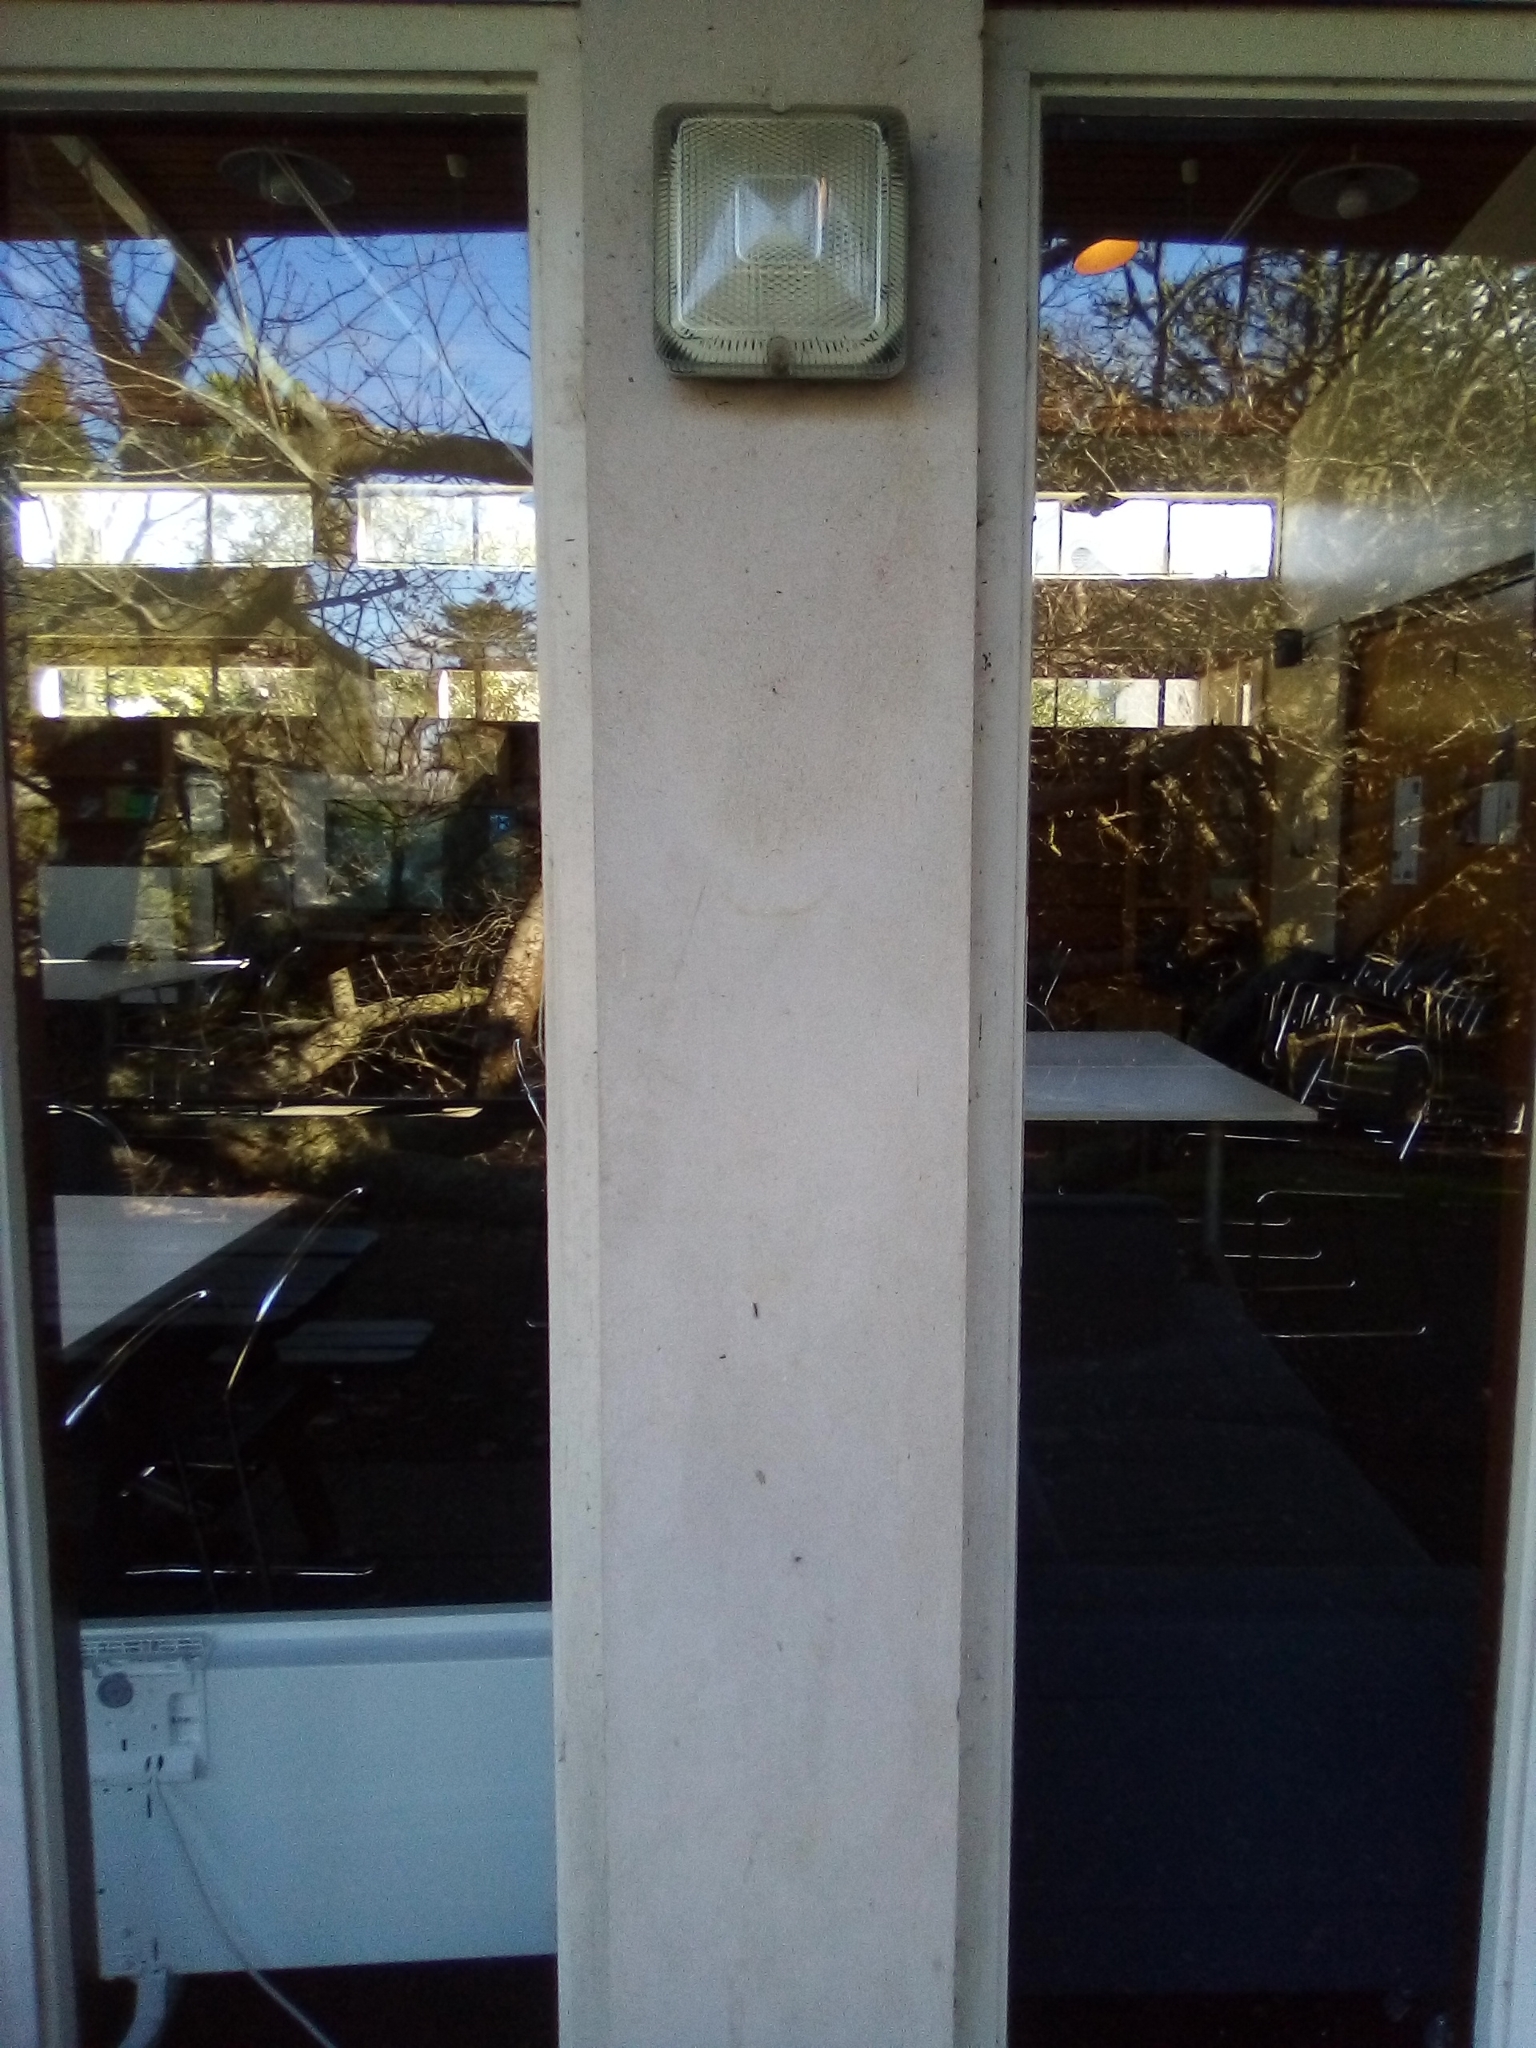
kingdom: Animalia
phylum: Arthropoda
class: Insecta
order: Lepidoptera
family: Oecophoridae
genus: Leptocroca
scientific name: Leptocroca sanguinolenta
